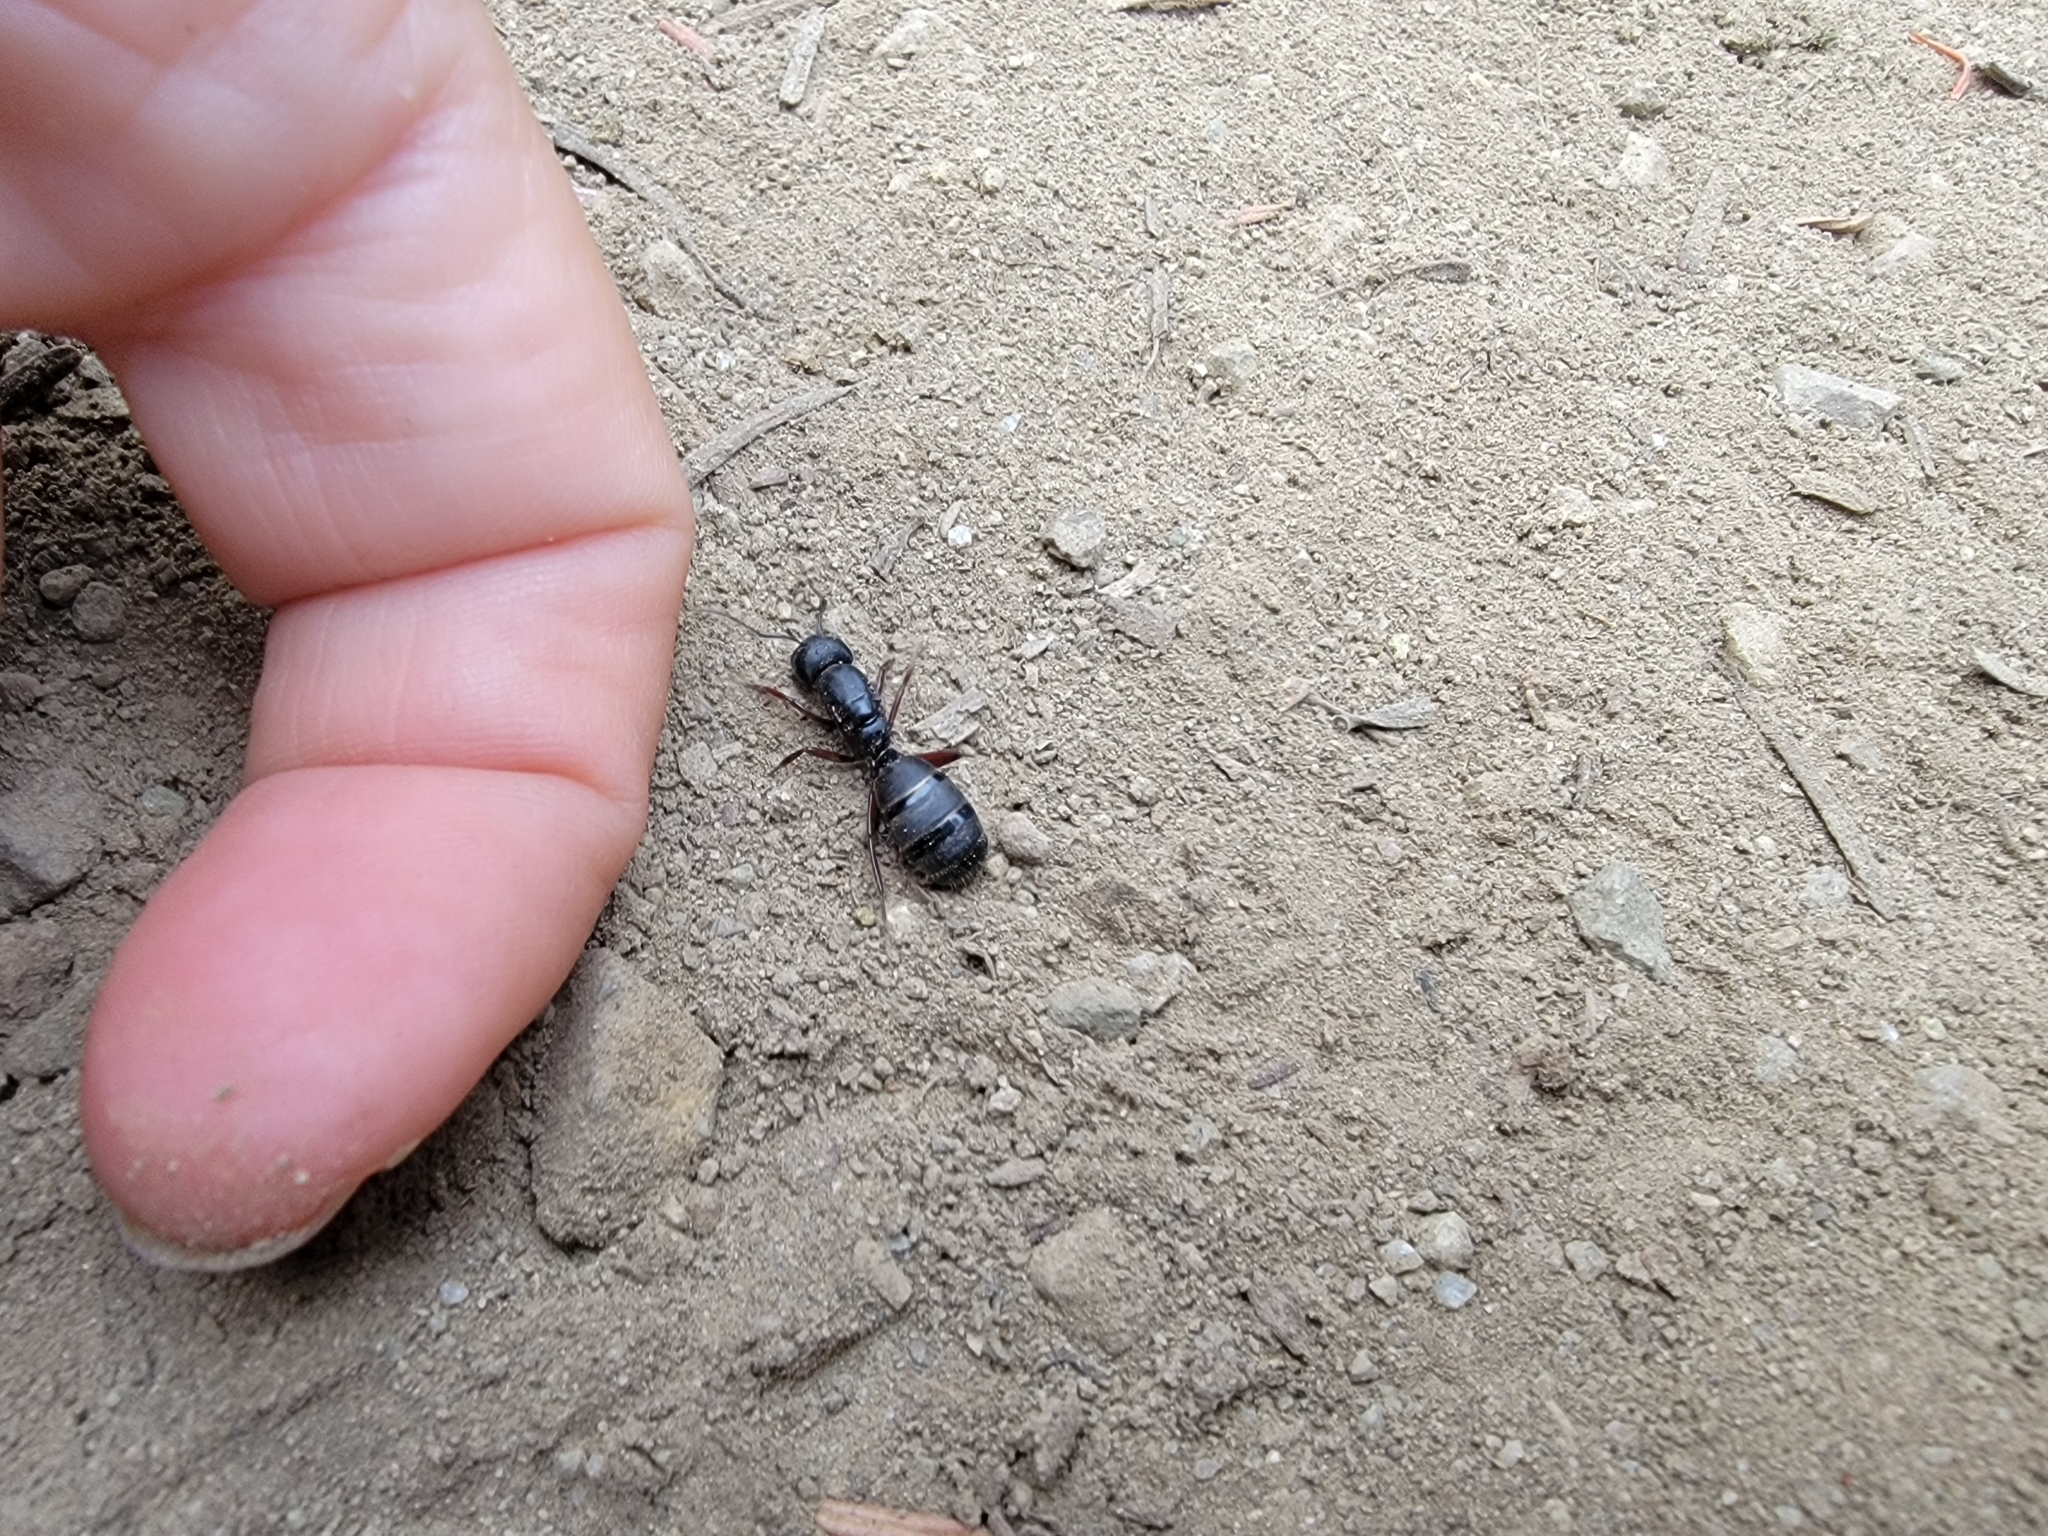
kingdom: Animalia
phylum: Arthropoda
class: Insecta
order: Hymenoptera
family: Formicidae
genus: Camponotus
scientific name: Camponotus modoc
